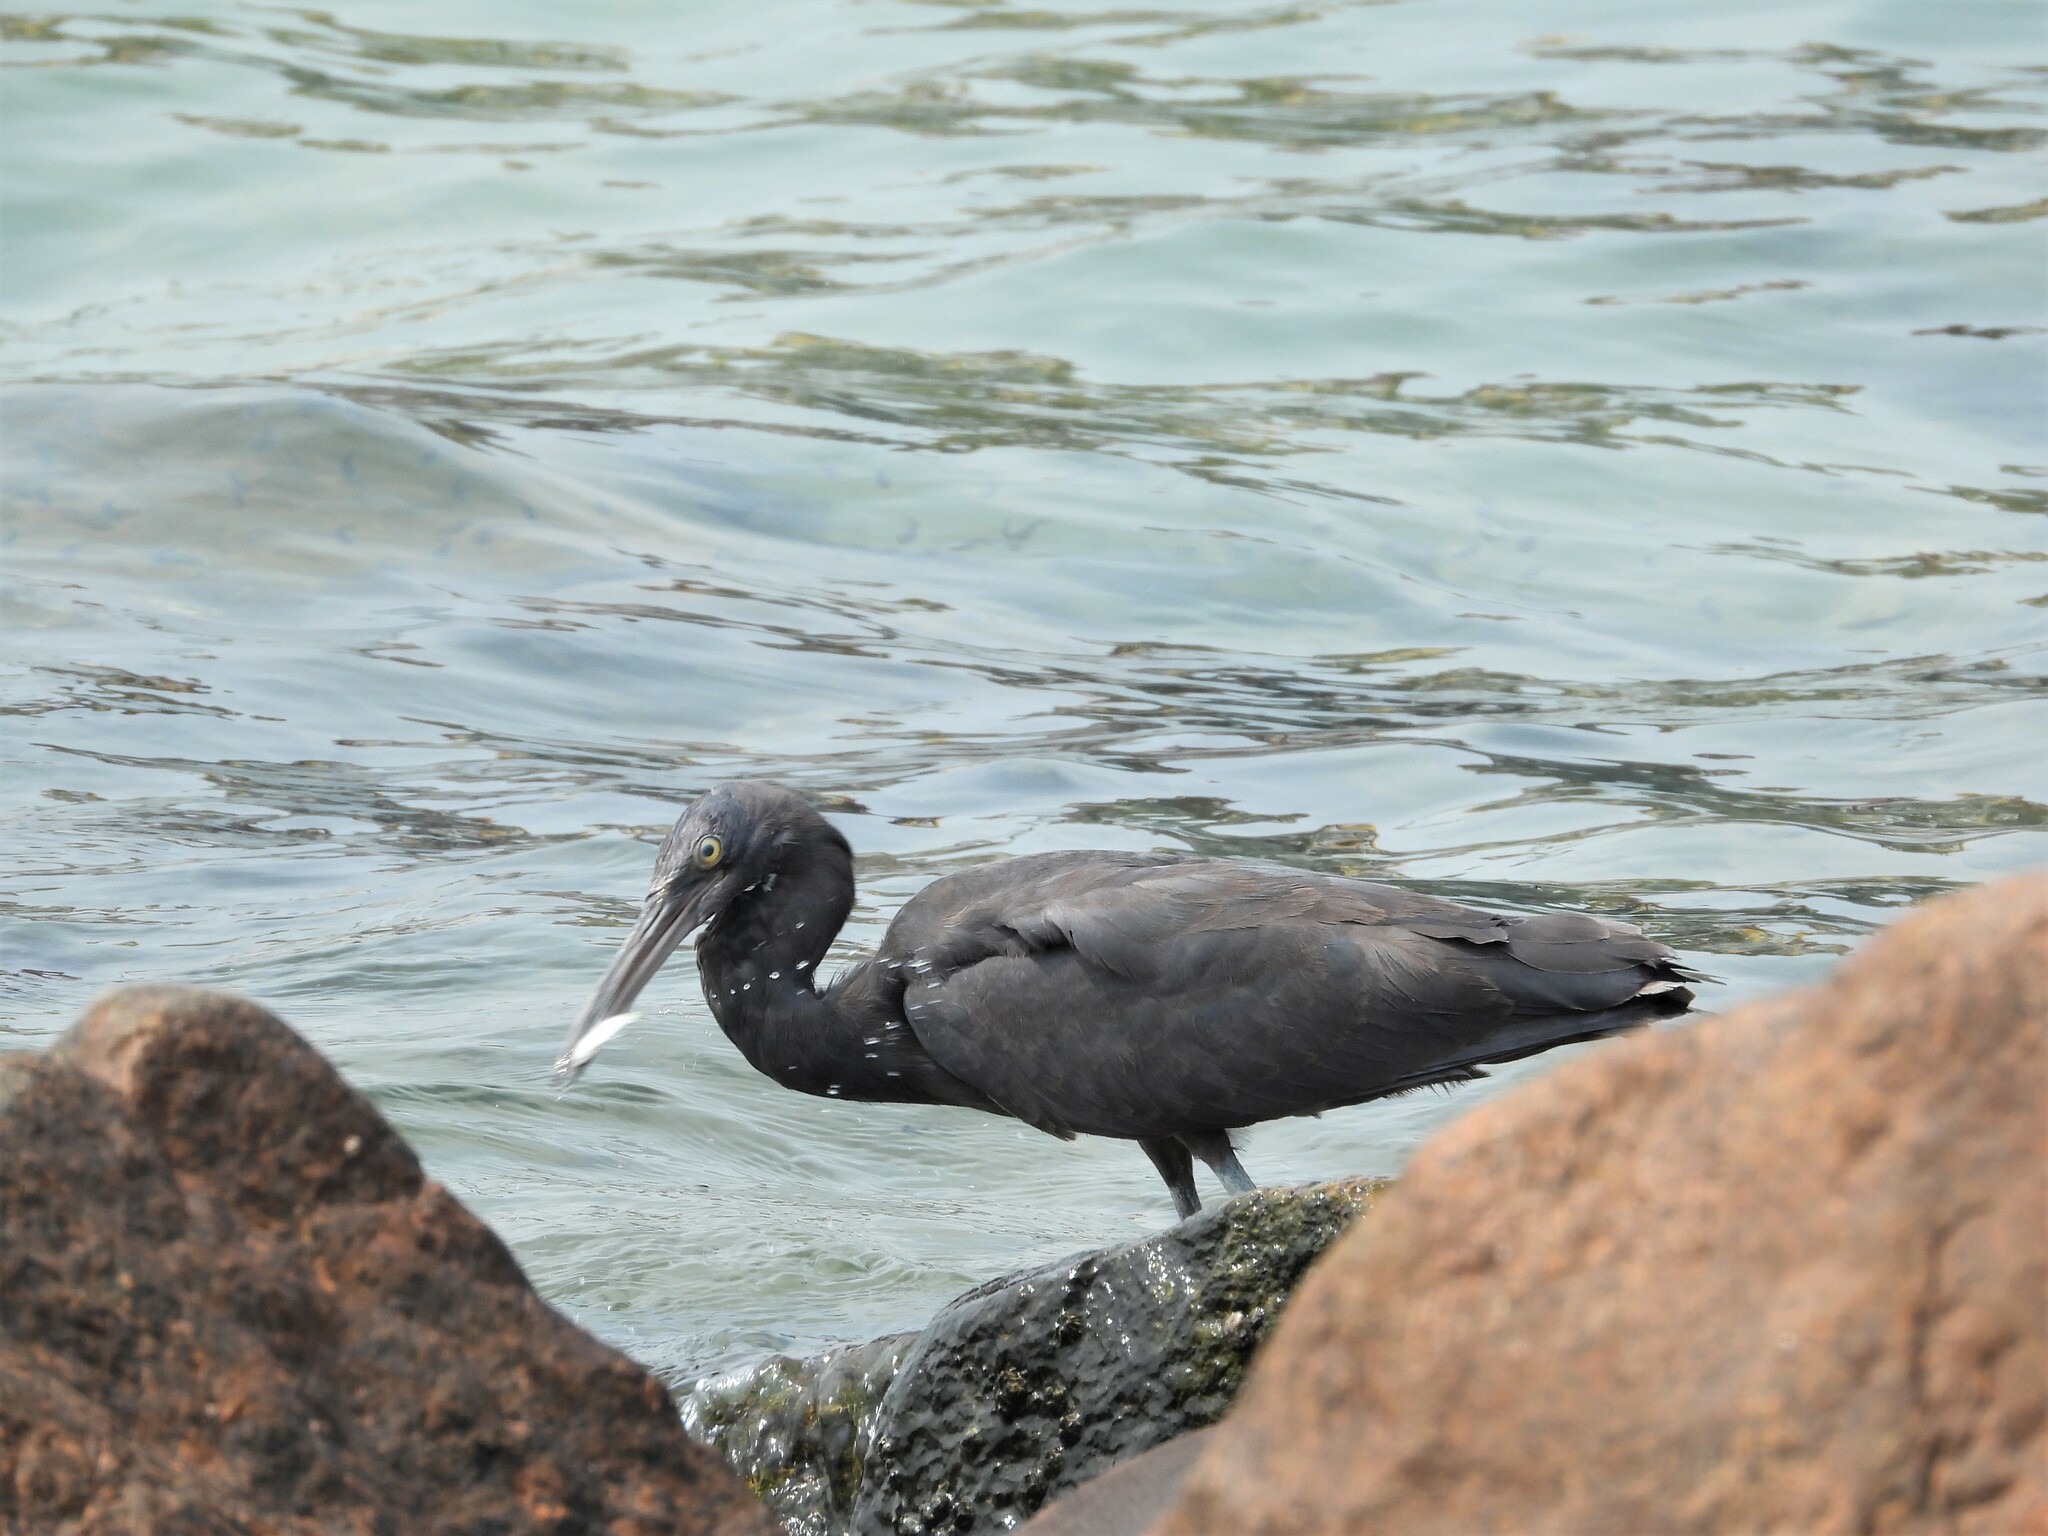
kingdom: Animalia
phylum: Chordata
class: Aves
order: Pelecaniformes
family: Ardeidae
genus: Egretta
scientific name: Egretta sacra
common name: Pacific reef heron
